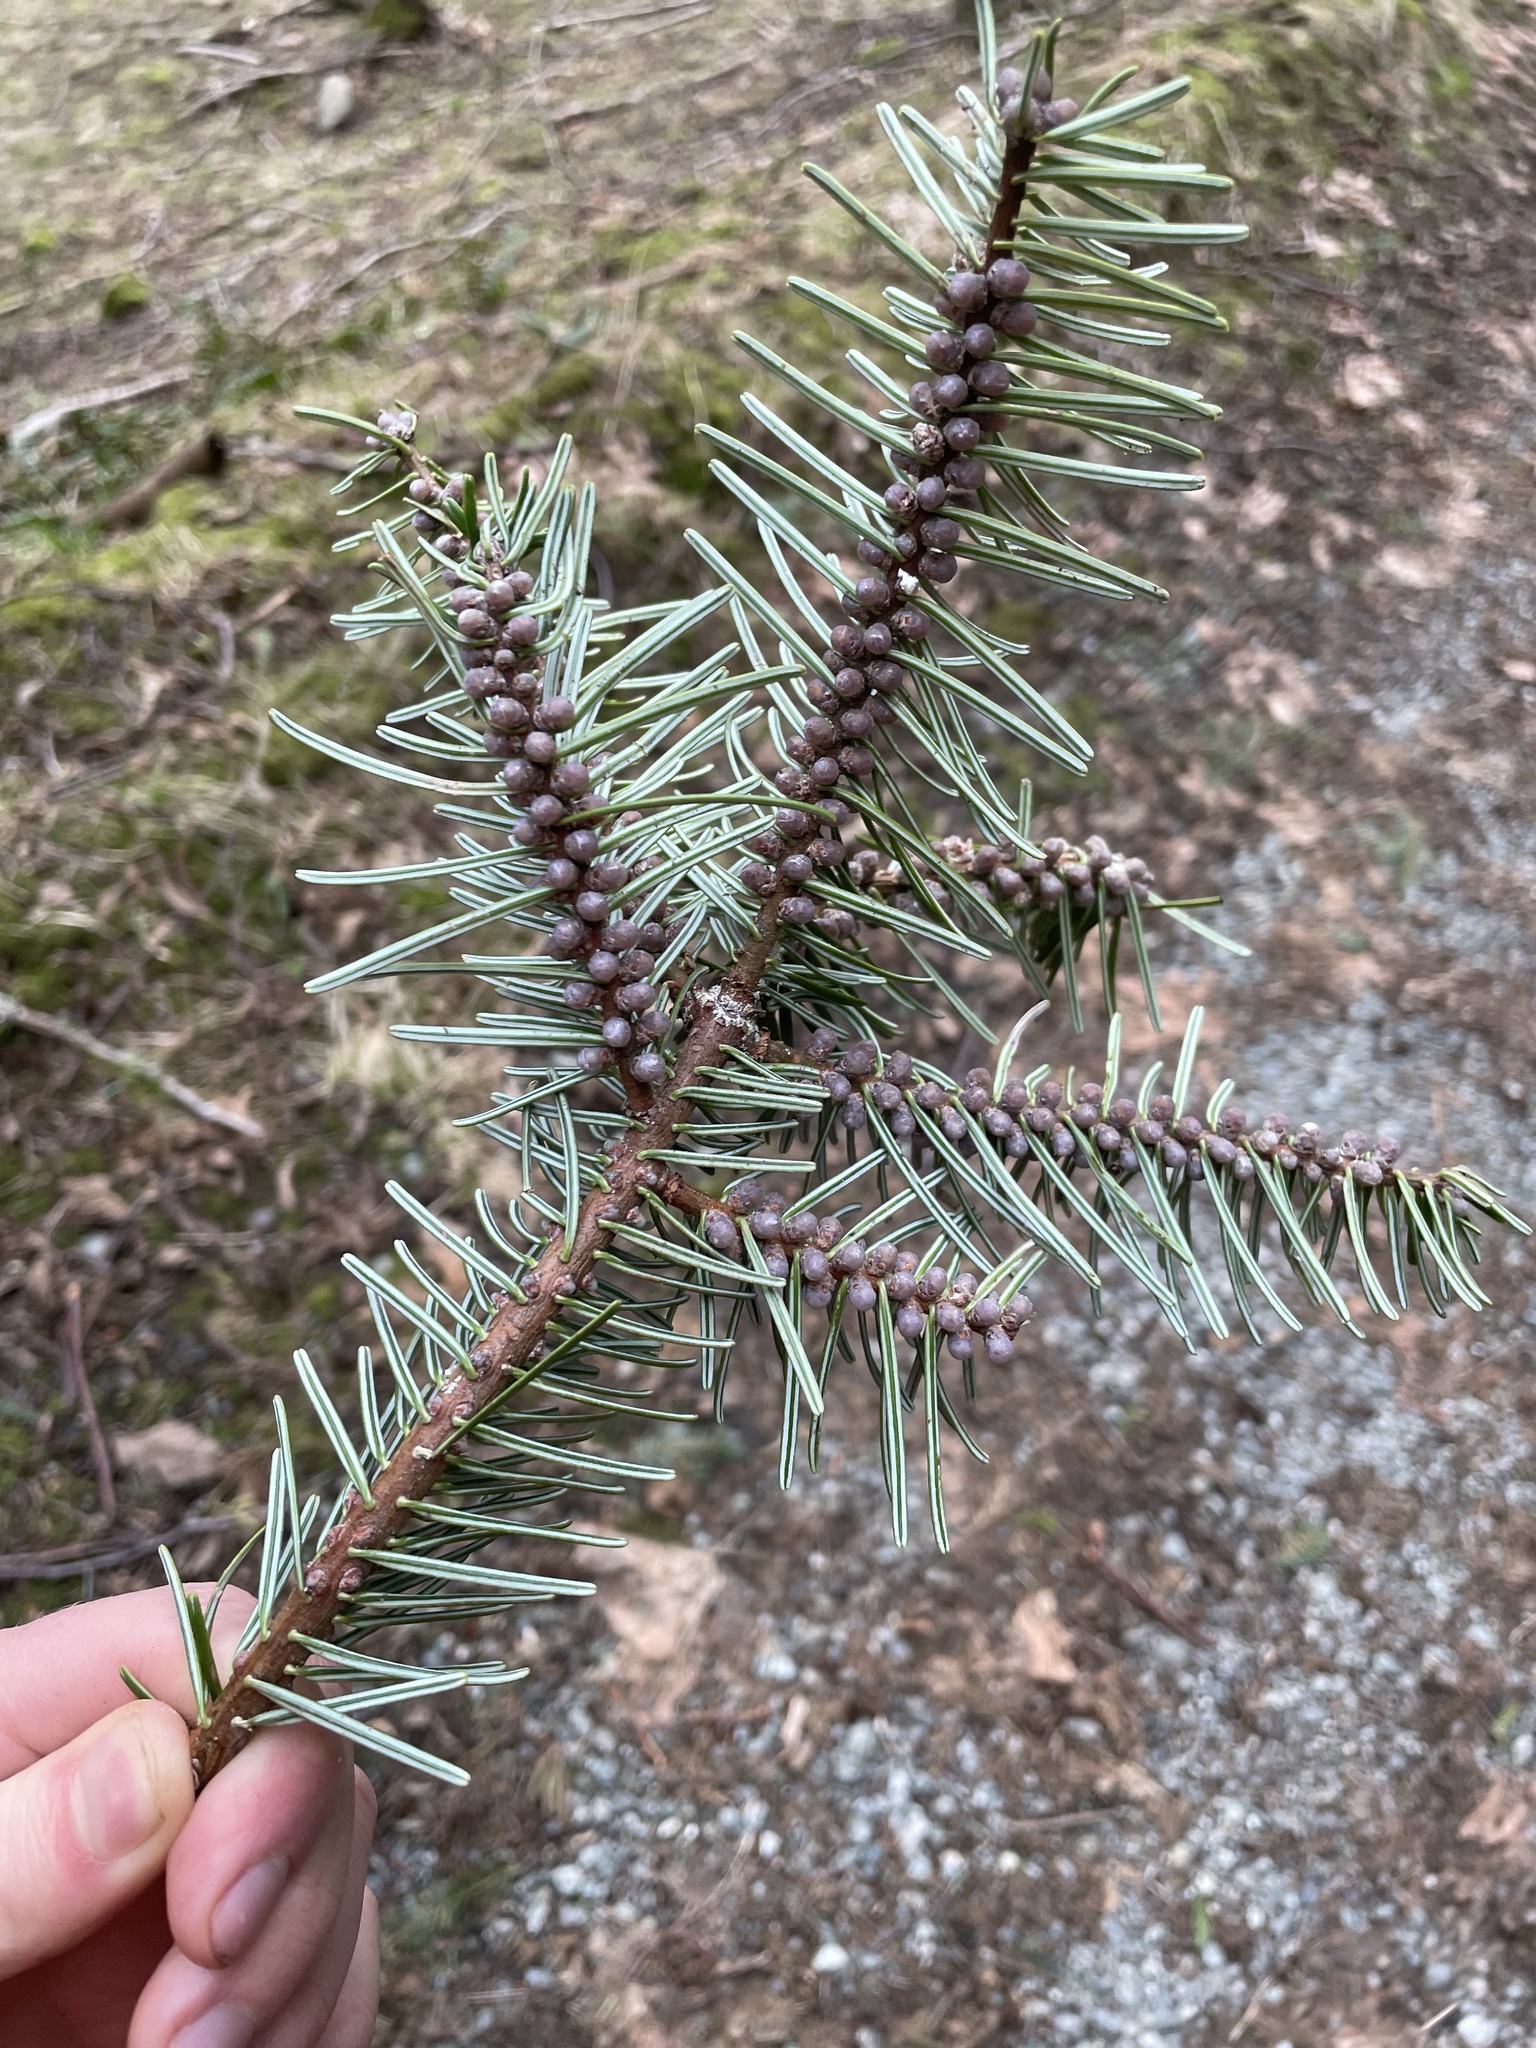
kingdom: Plantae
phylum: Tracheophyta
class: Pinopsida
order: Pinales
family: Pinaceae
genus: Abies
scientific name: Abies grandis
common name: Giant fir
